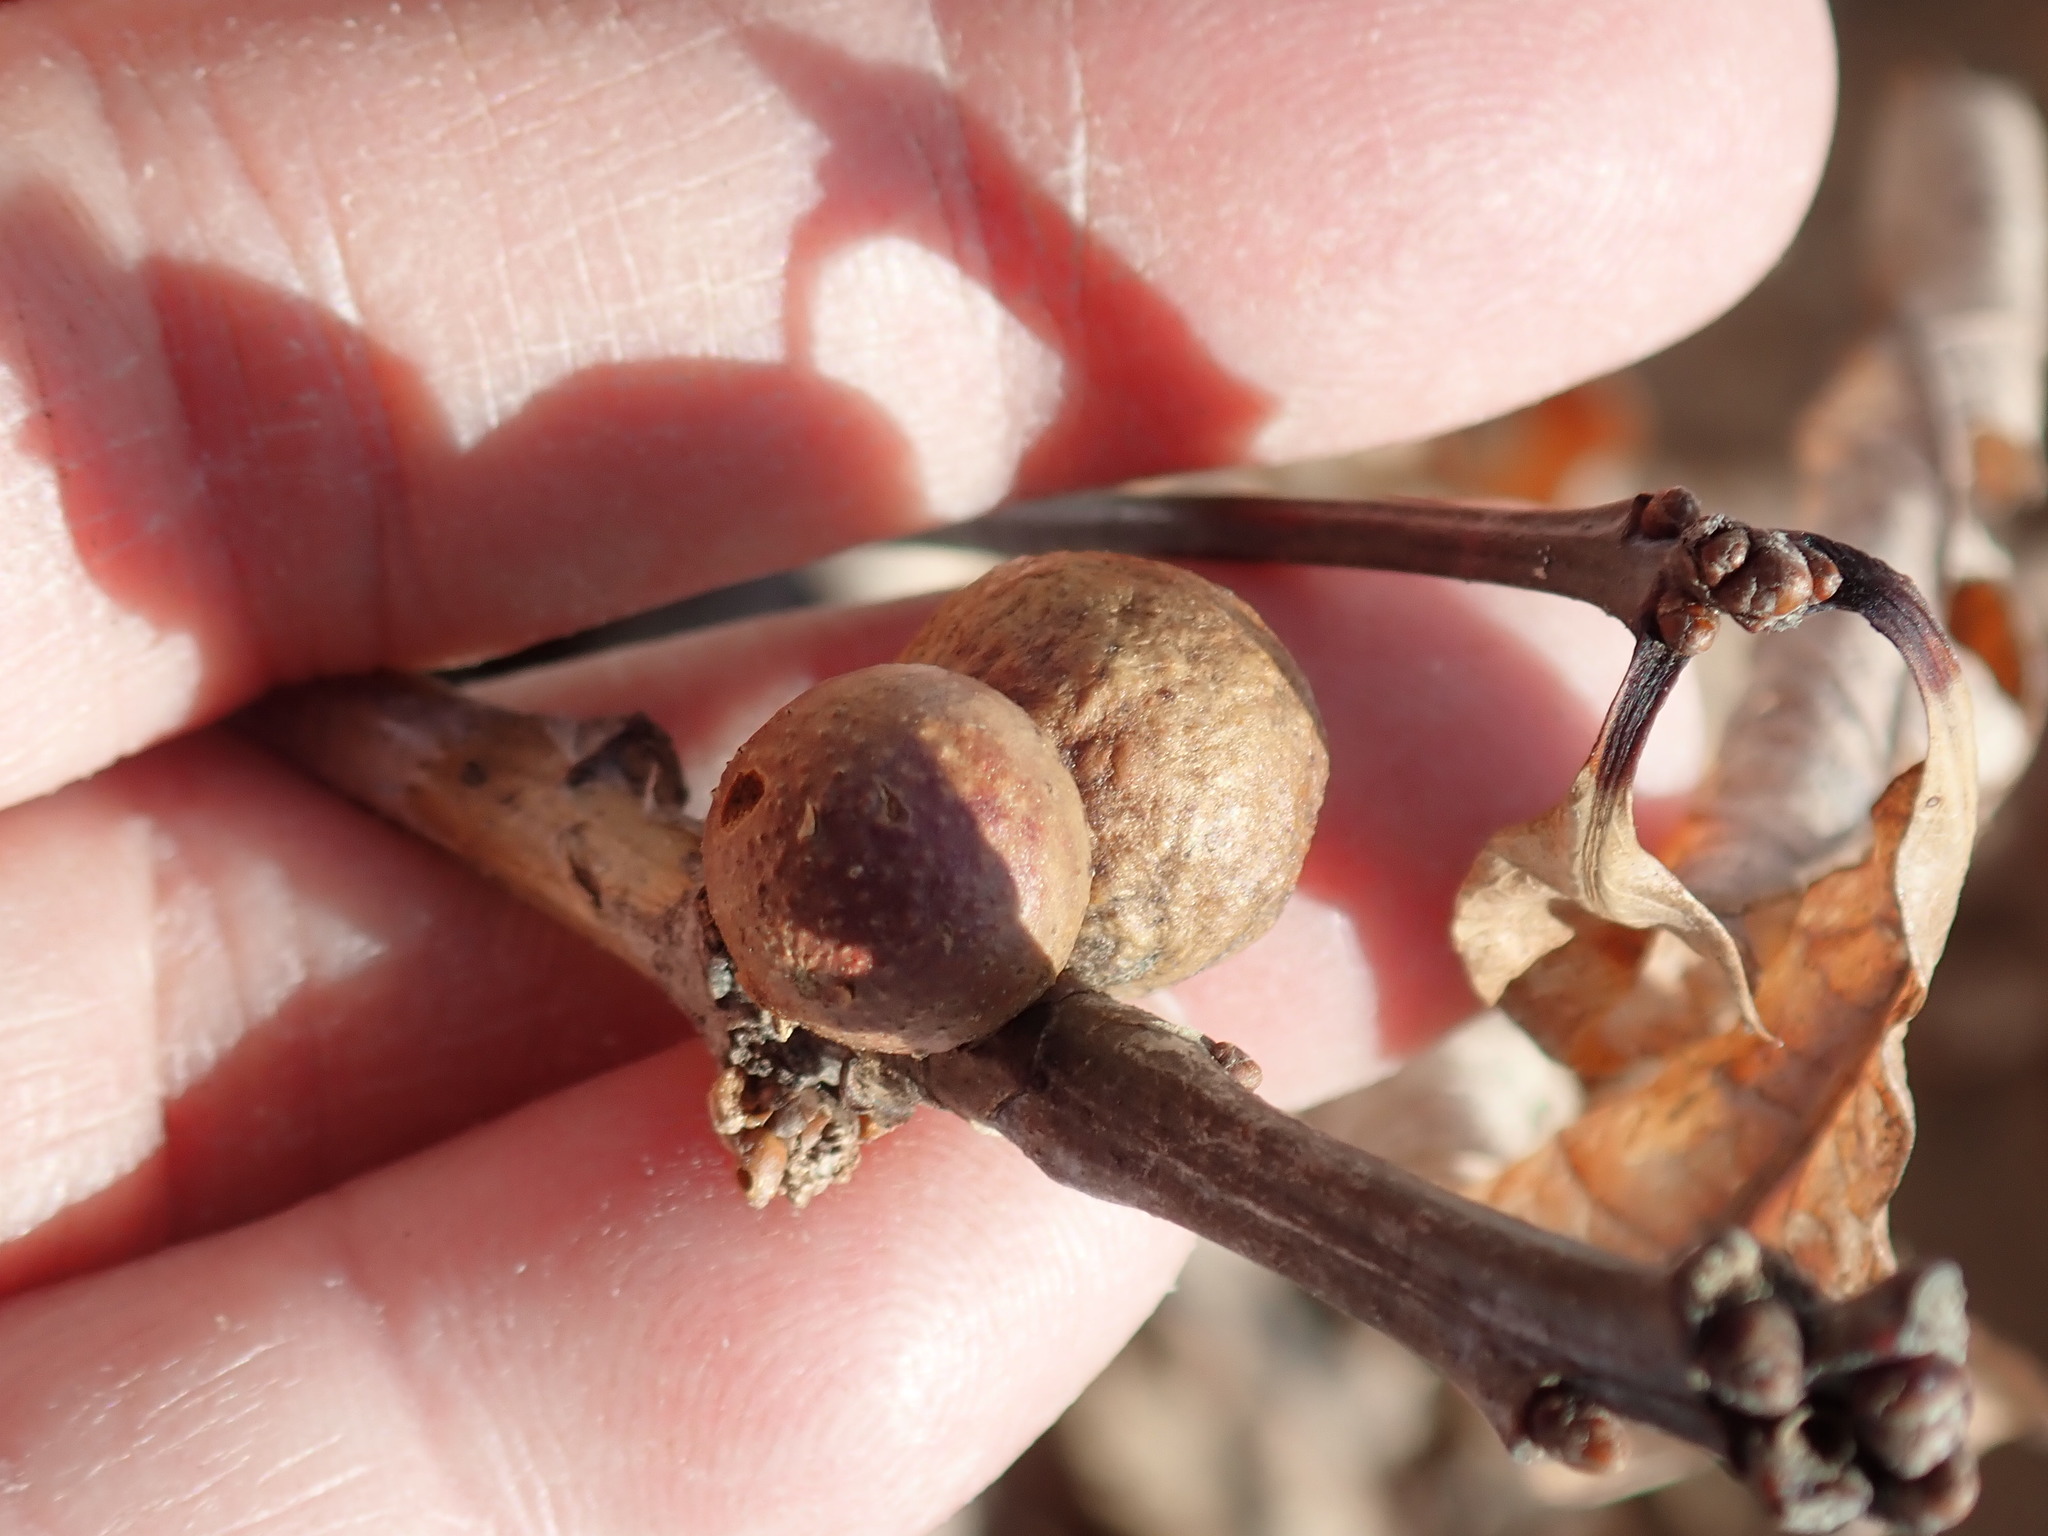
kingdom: Animalia
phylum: Arthropoda
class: Insecta
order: Hymenoptera
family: Cynipidae
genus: Disholcaspis
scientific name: Disholcaspis quercusglobulus
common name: Round bullet gall wasp
